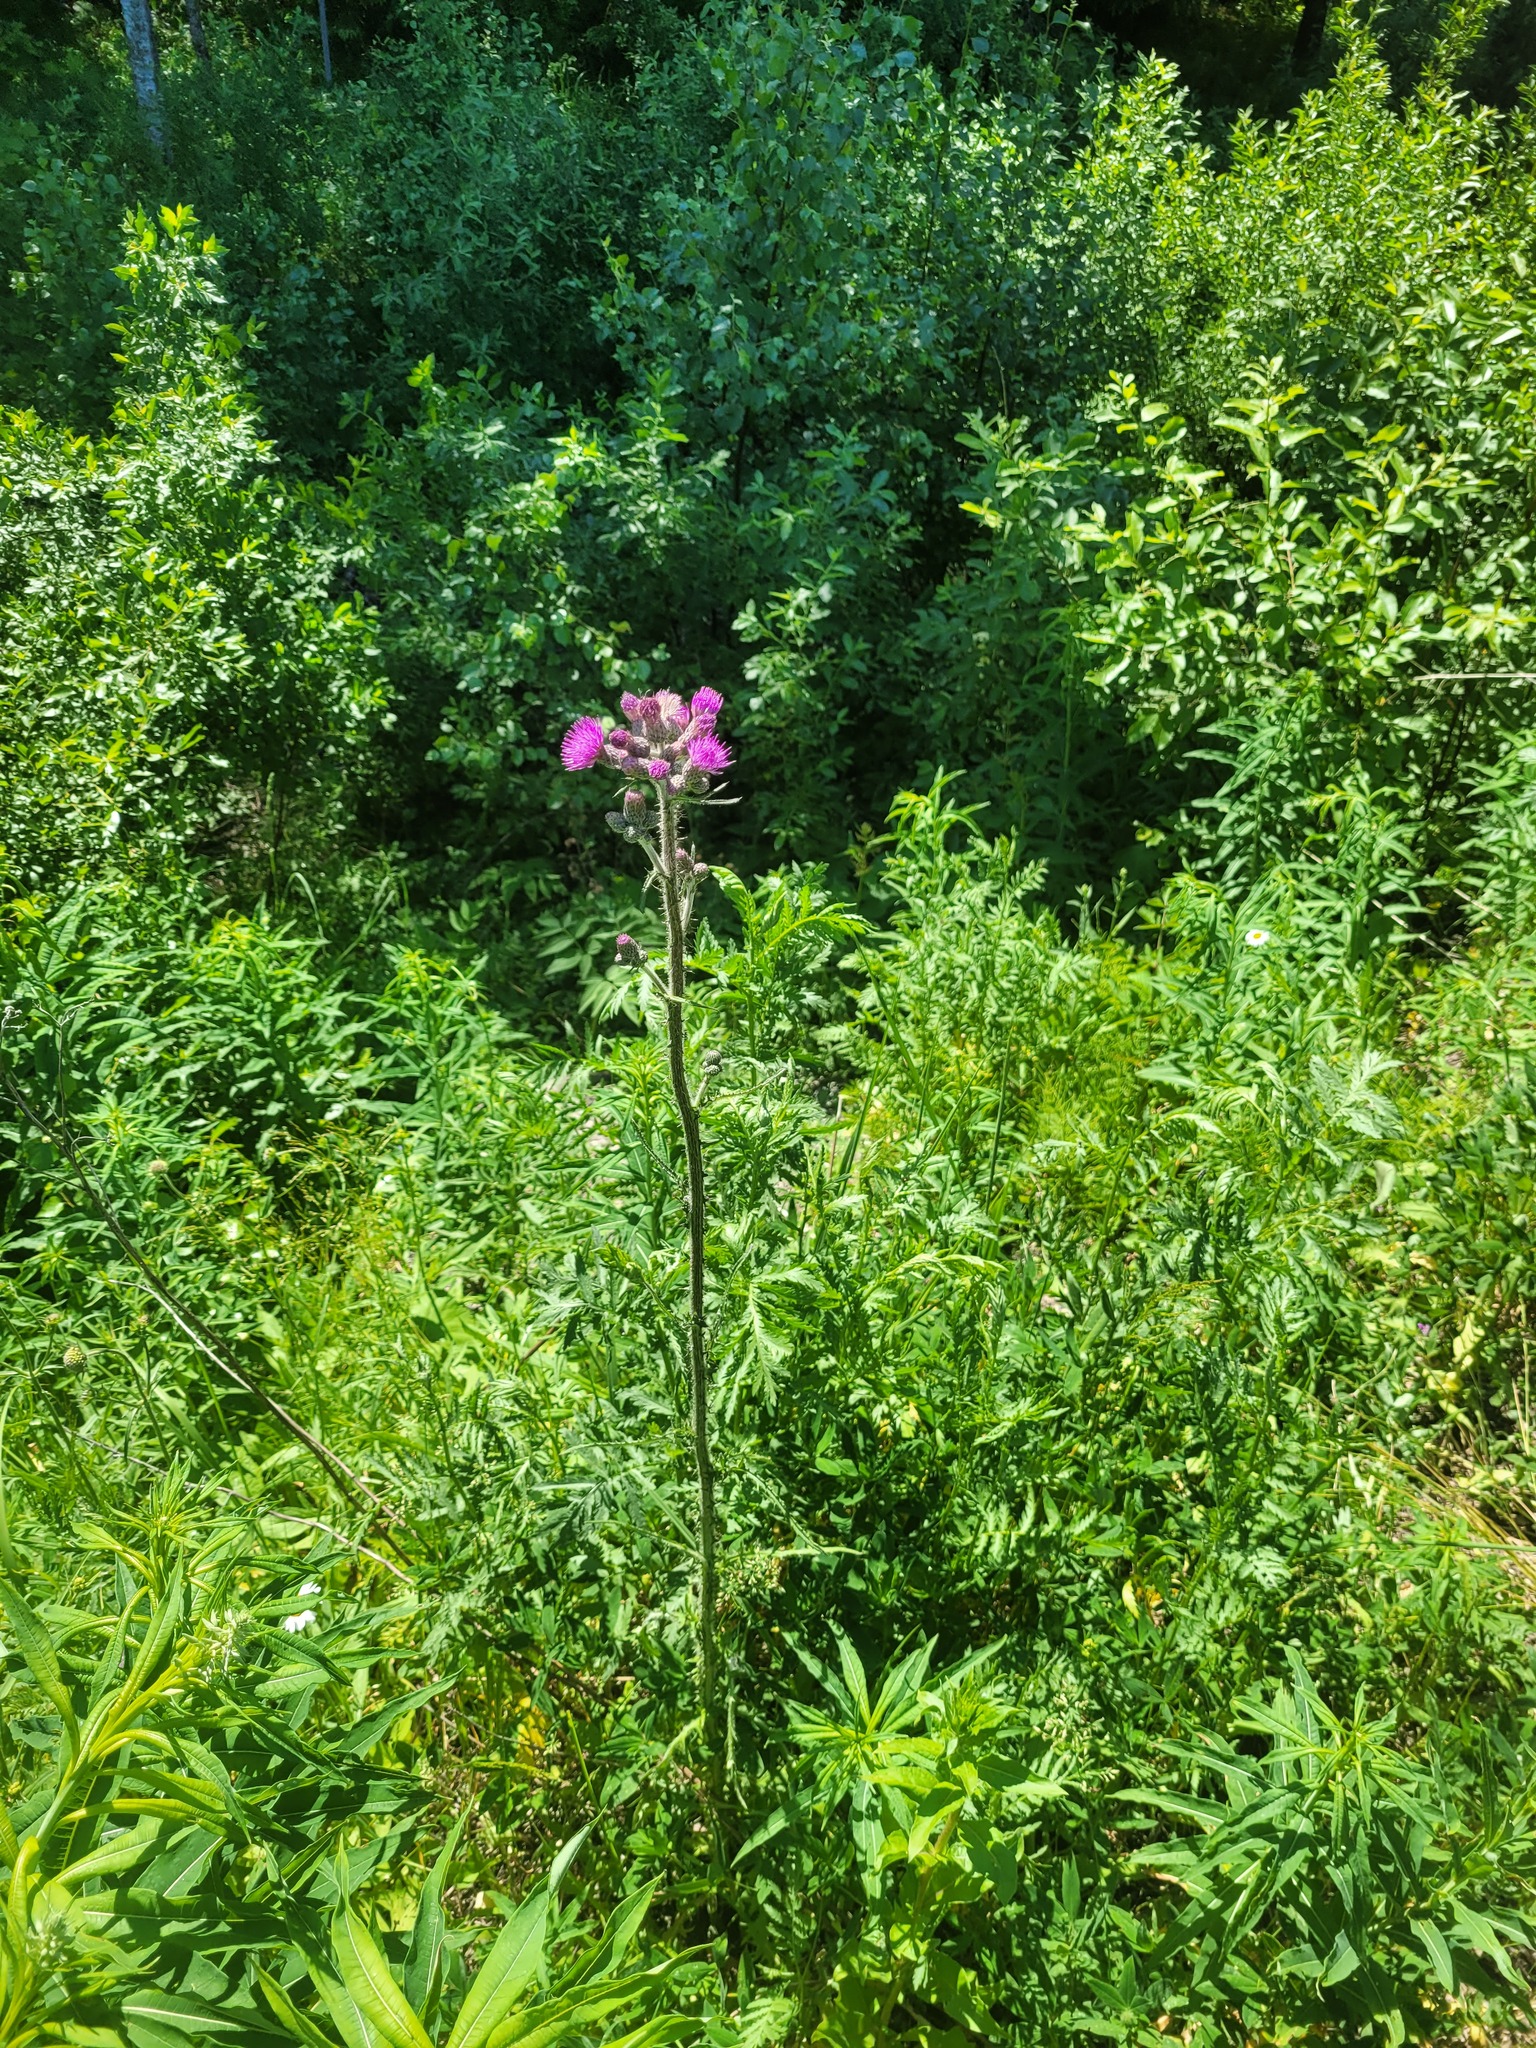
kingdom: Plantae
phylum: Tracheophyta
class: Magnoliopsida
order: Asterales
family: Asteraceae
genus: Cirsium
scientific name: Cirsium palustre
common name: Marsh thistle
